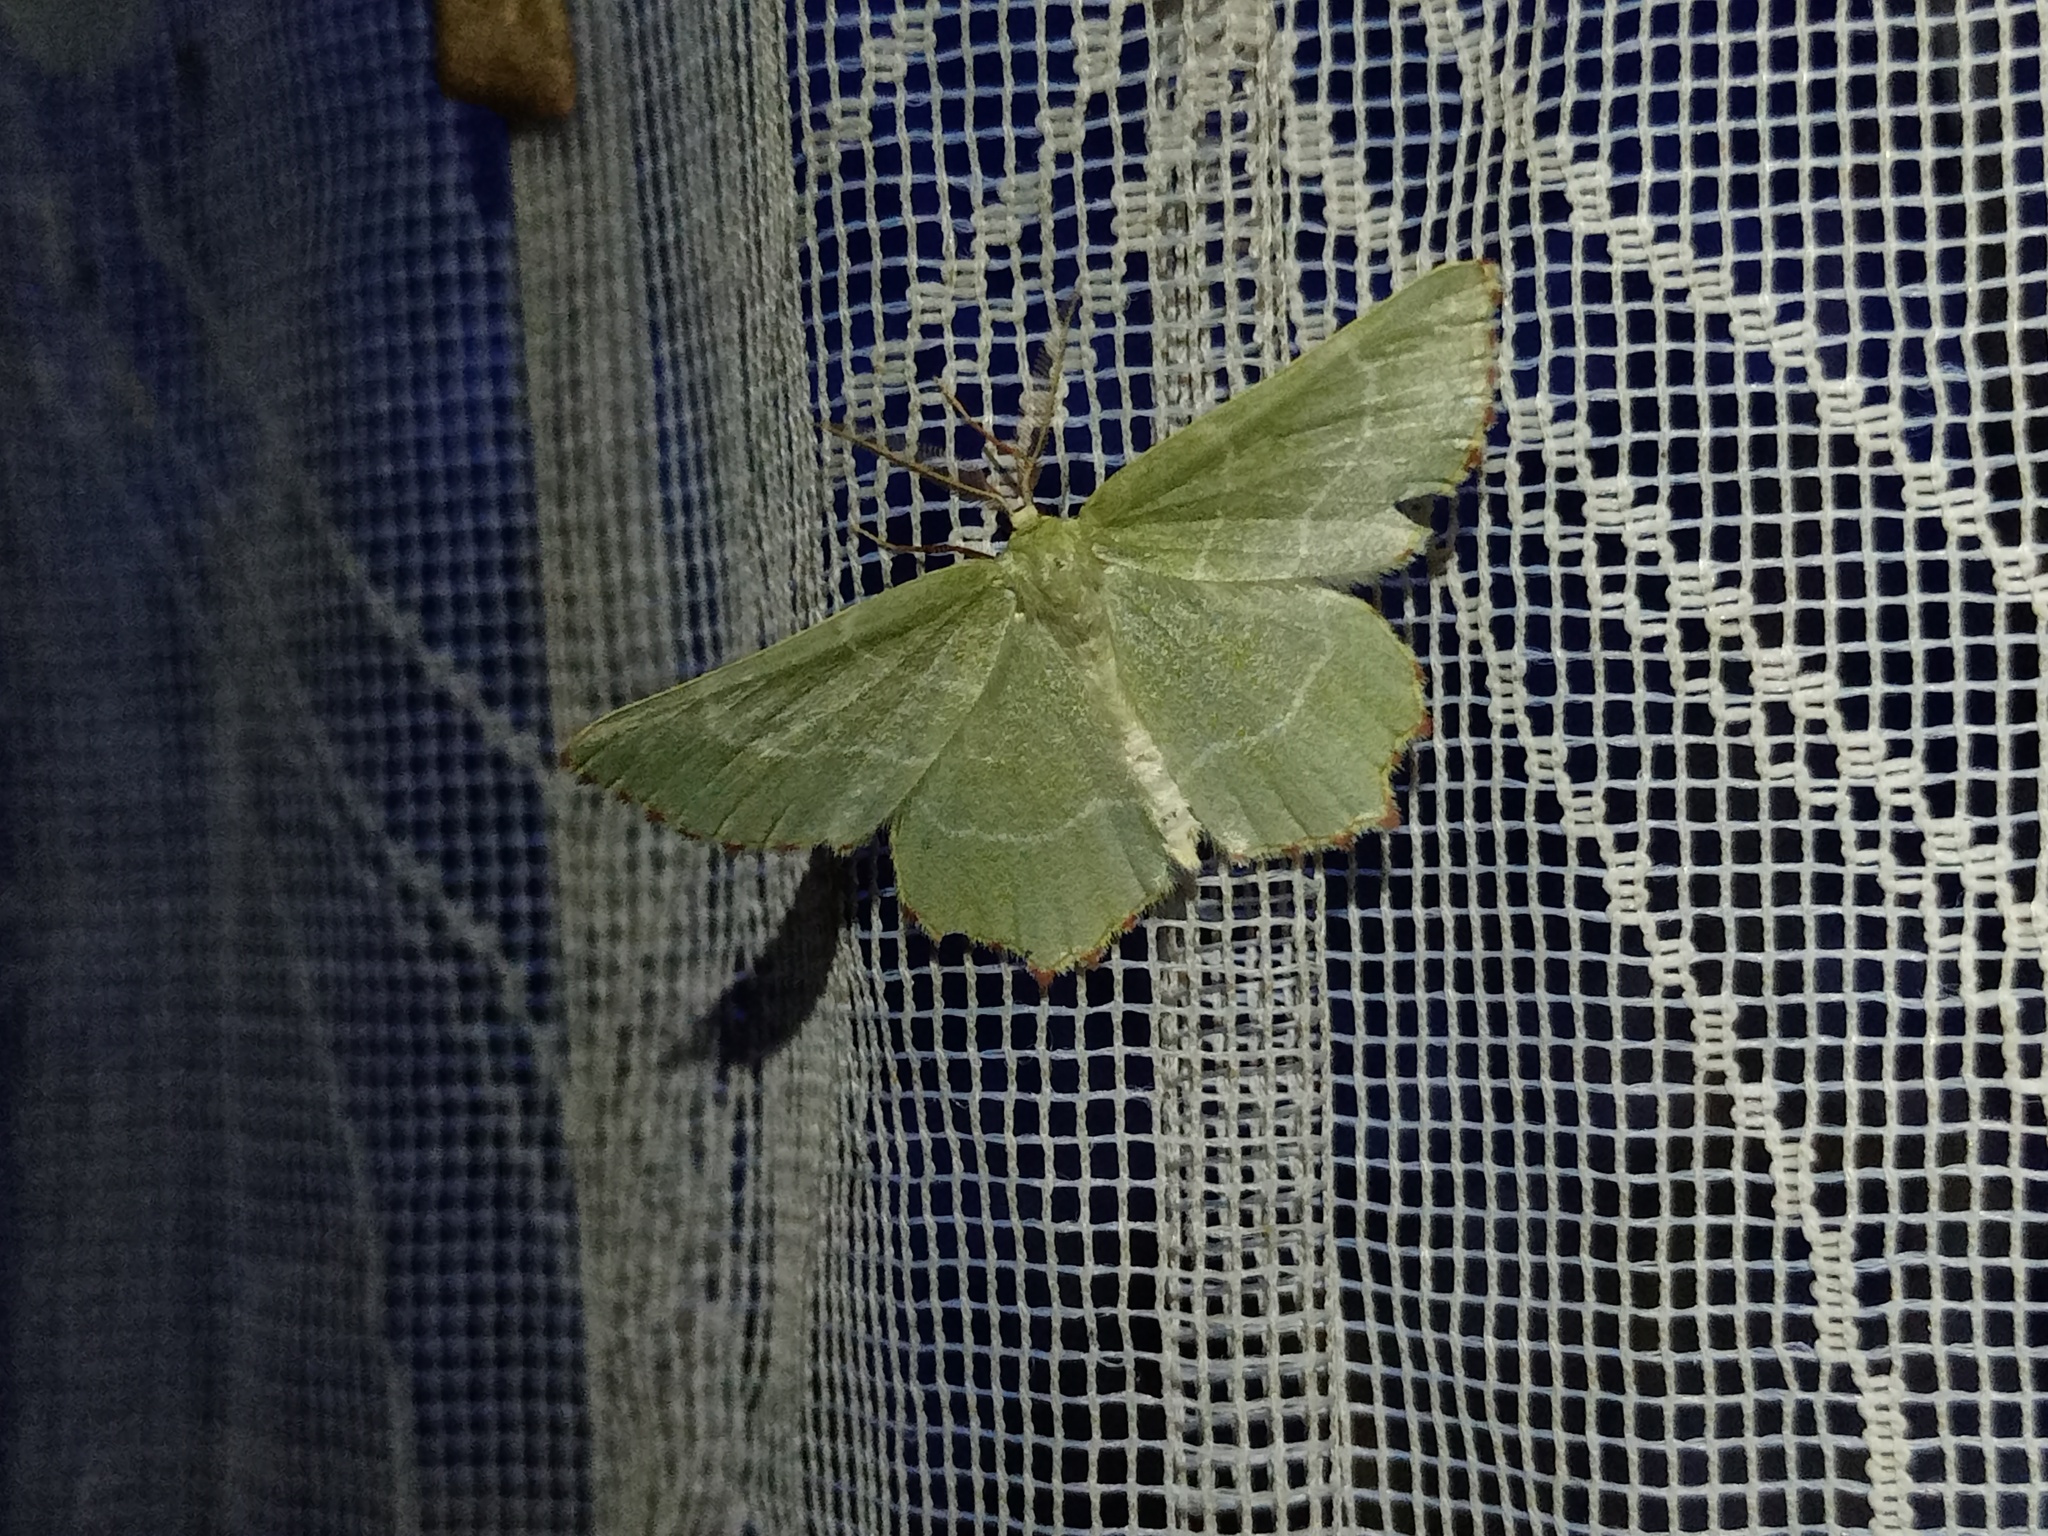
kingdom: Animalia
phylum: Arthropoda
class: Insecta
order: Lepidoptera
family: Geometridae
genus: Thalera
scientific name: Thalera fimbrialis
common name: Sussex emerald
